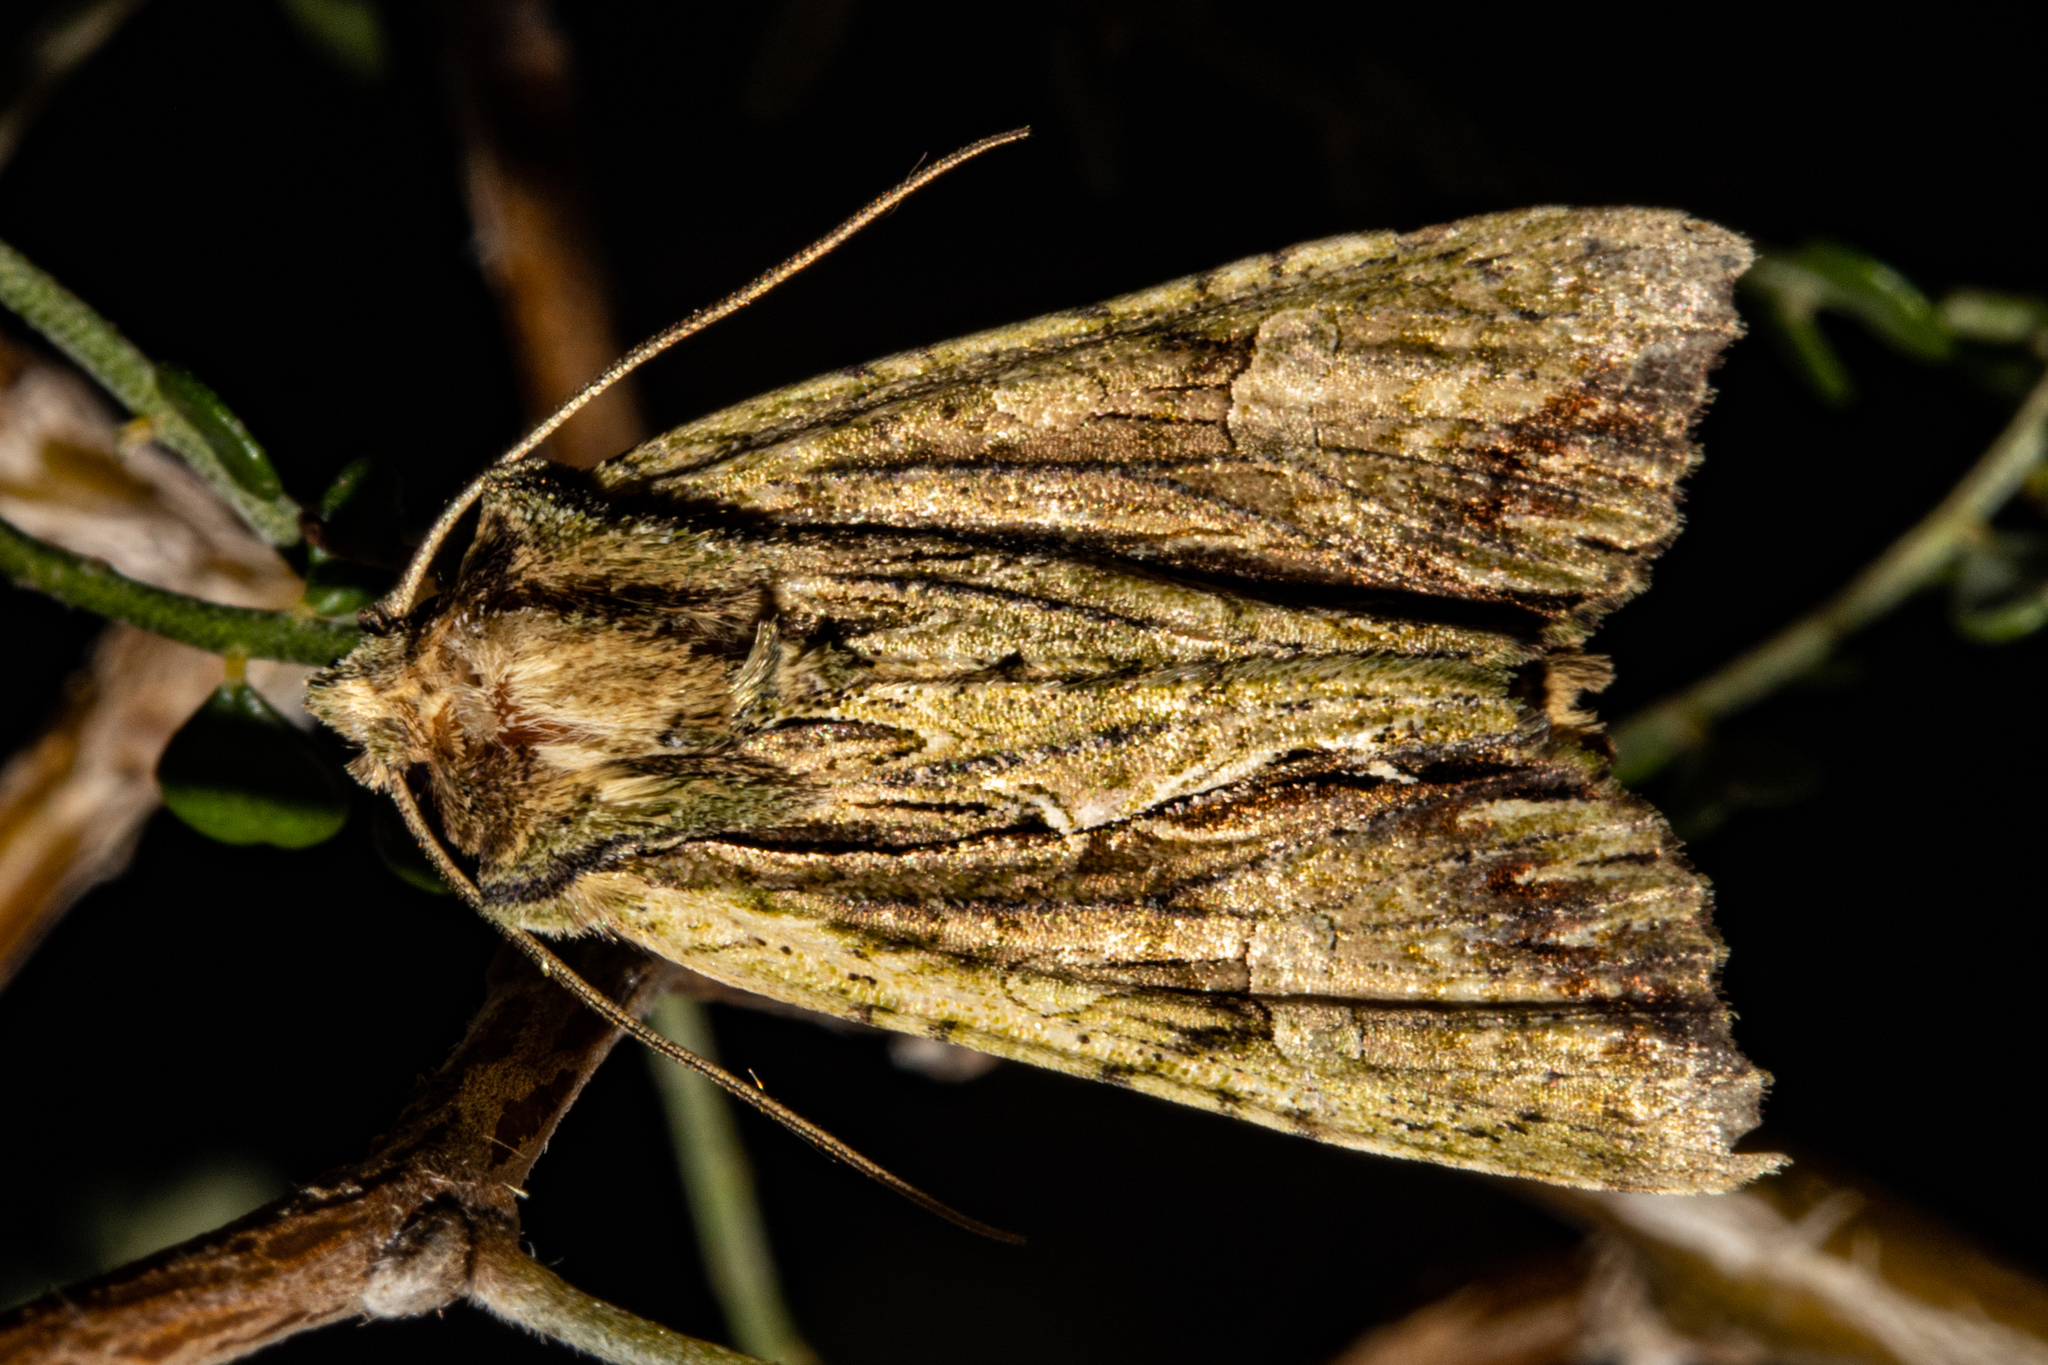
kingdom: Animalia
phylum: Arthropoda
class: Insecta
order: Lepidoptera
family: Noctuidae
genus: Meterana
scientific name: Meterana decorata
